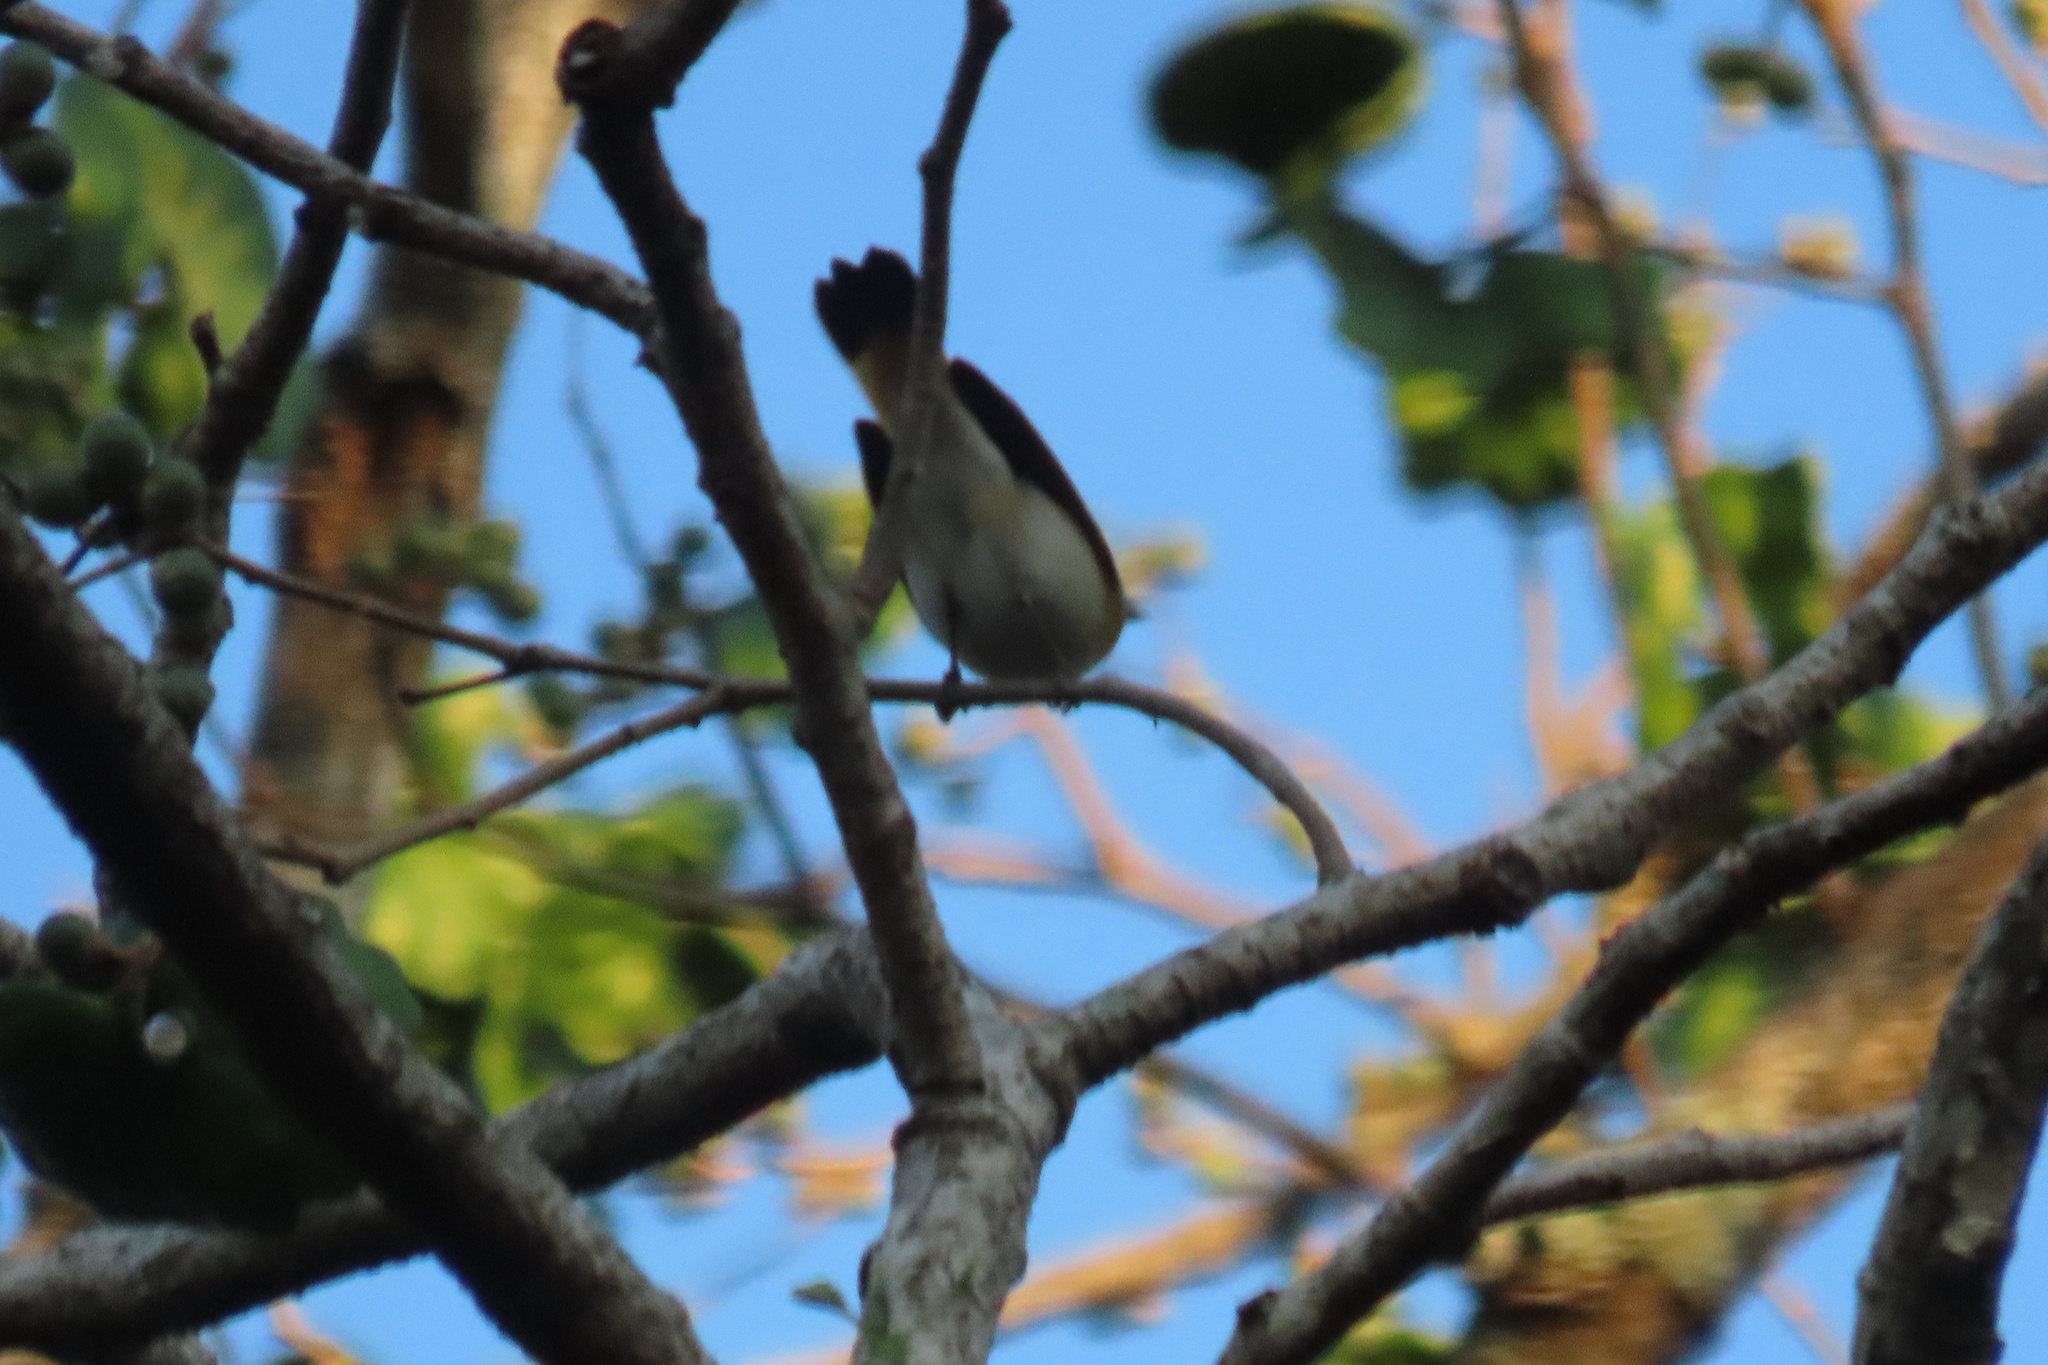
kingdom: Animalia
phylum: Chordata
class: Aves
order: Passeriformes
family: Parulidae
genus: Setophaga
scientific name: Setophaga ruticilla
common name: American redstart
